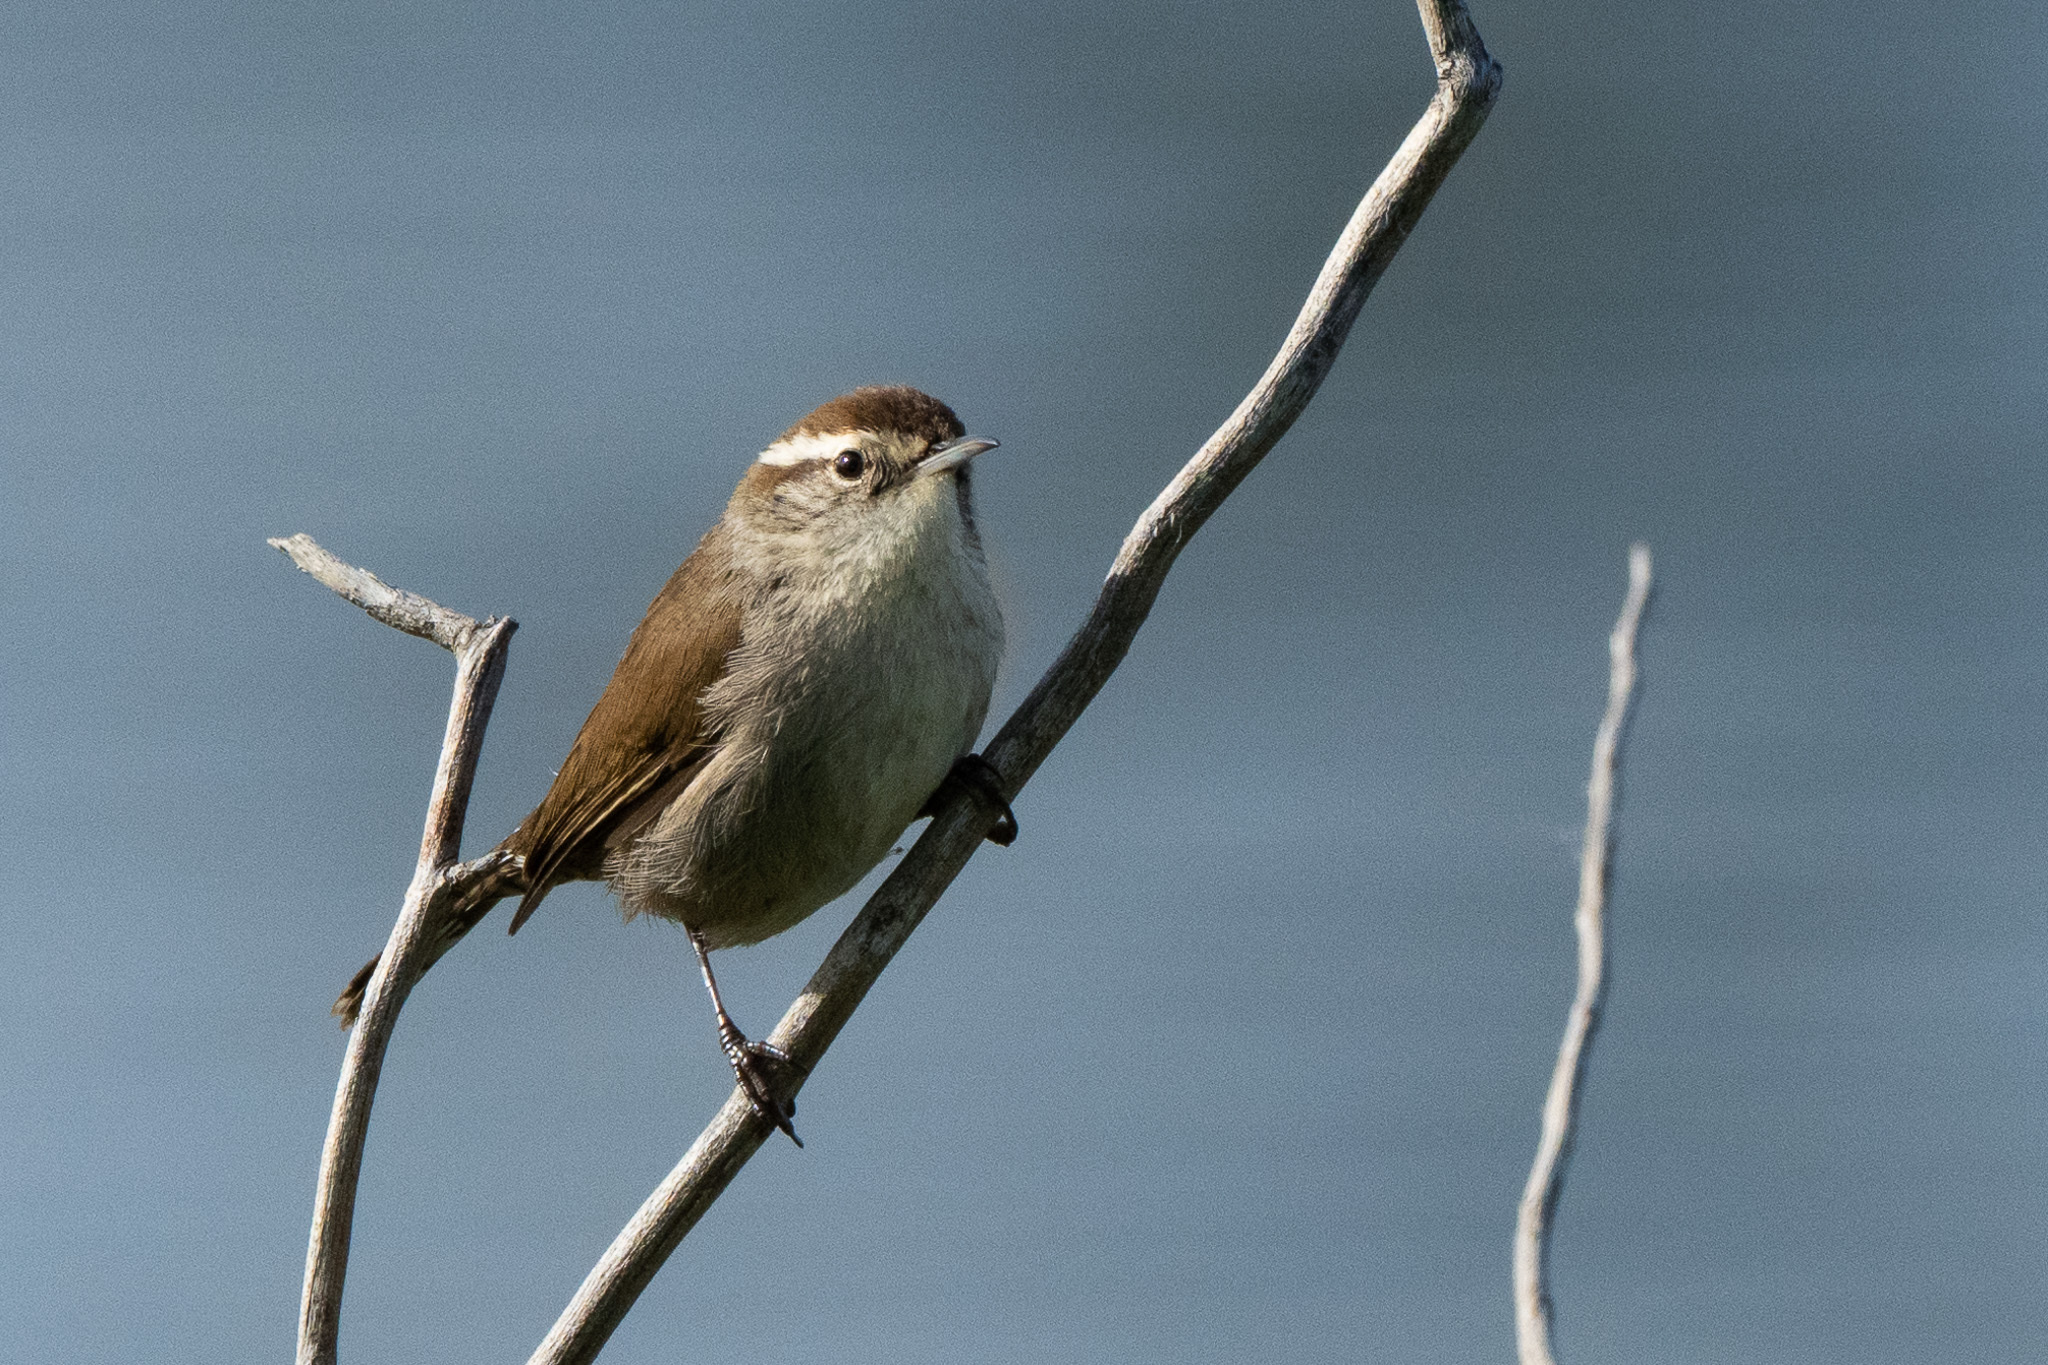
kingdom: Animalia
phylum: Chordata
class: Aves
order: Passeriformes
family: Troglodytidae
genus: Thryomanes
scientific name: Thryomanes bewickii
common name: Bewick's wren
